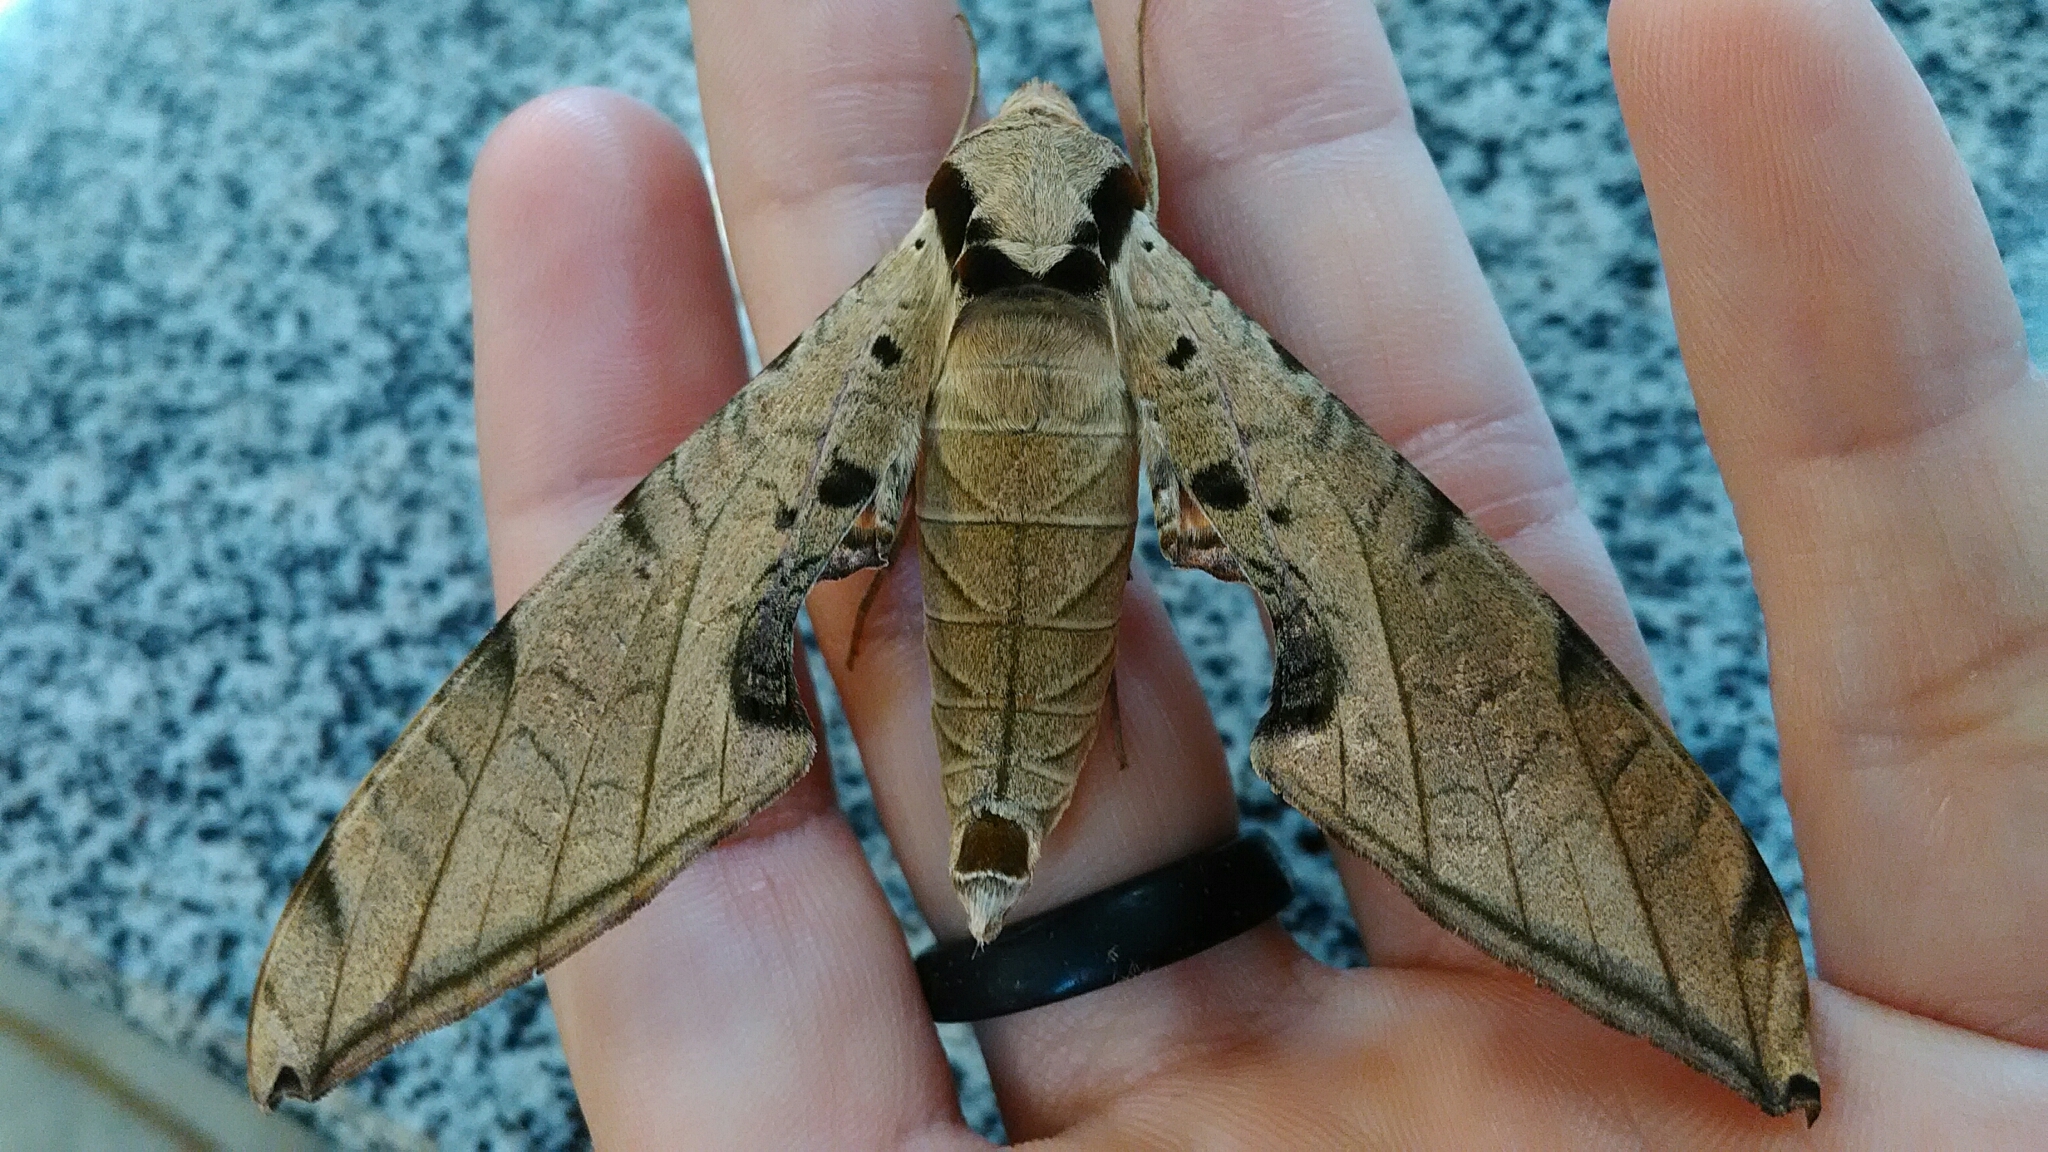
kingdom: Animalia
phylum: Arthropoda
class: Insecta
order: Lepidoptera
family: Sphingidae
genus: Protambulyx
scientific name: Protambulyx strigilis
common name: Streaked sphinx
